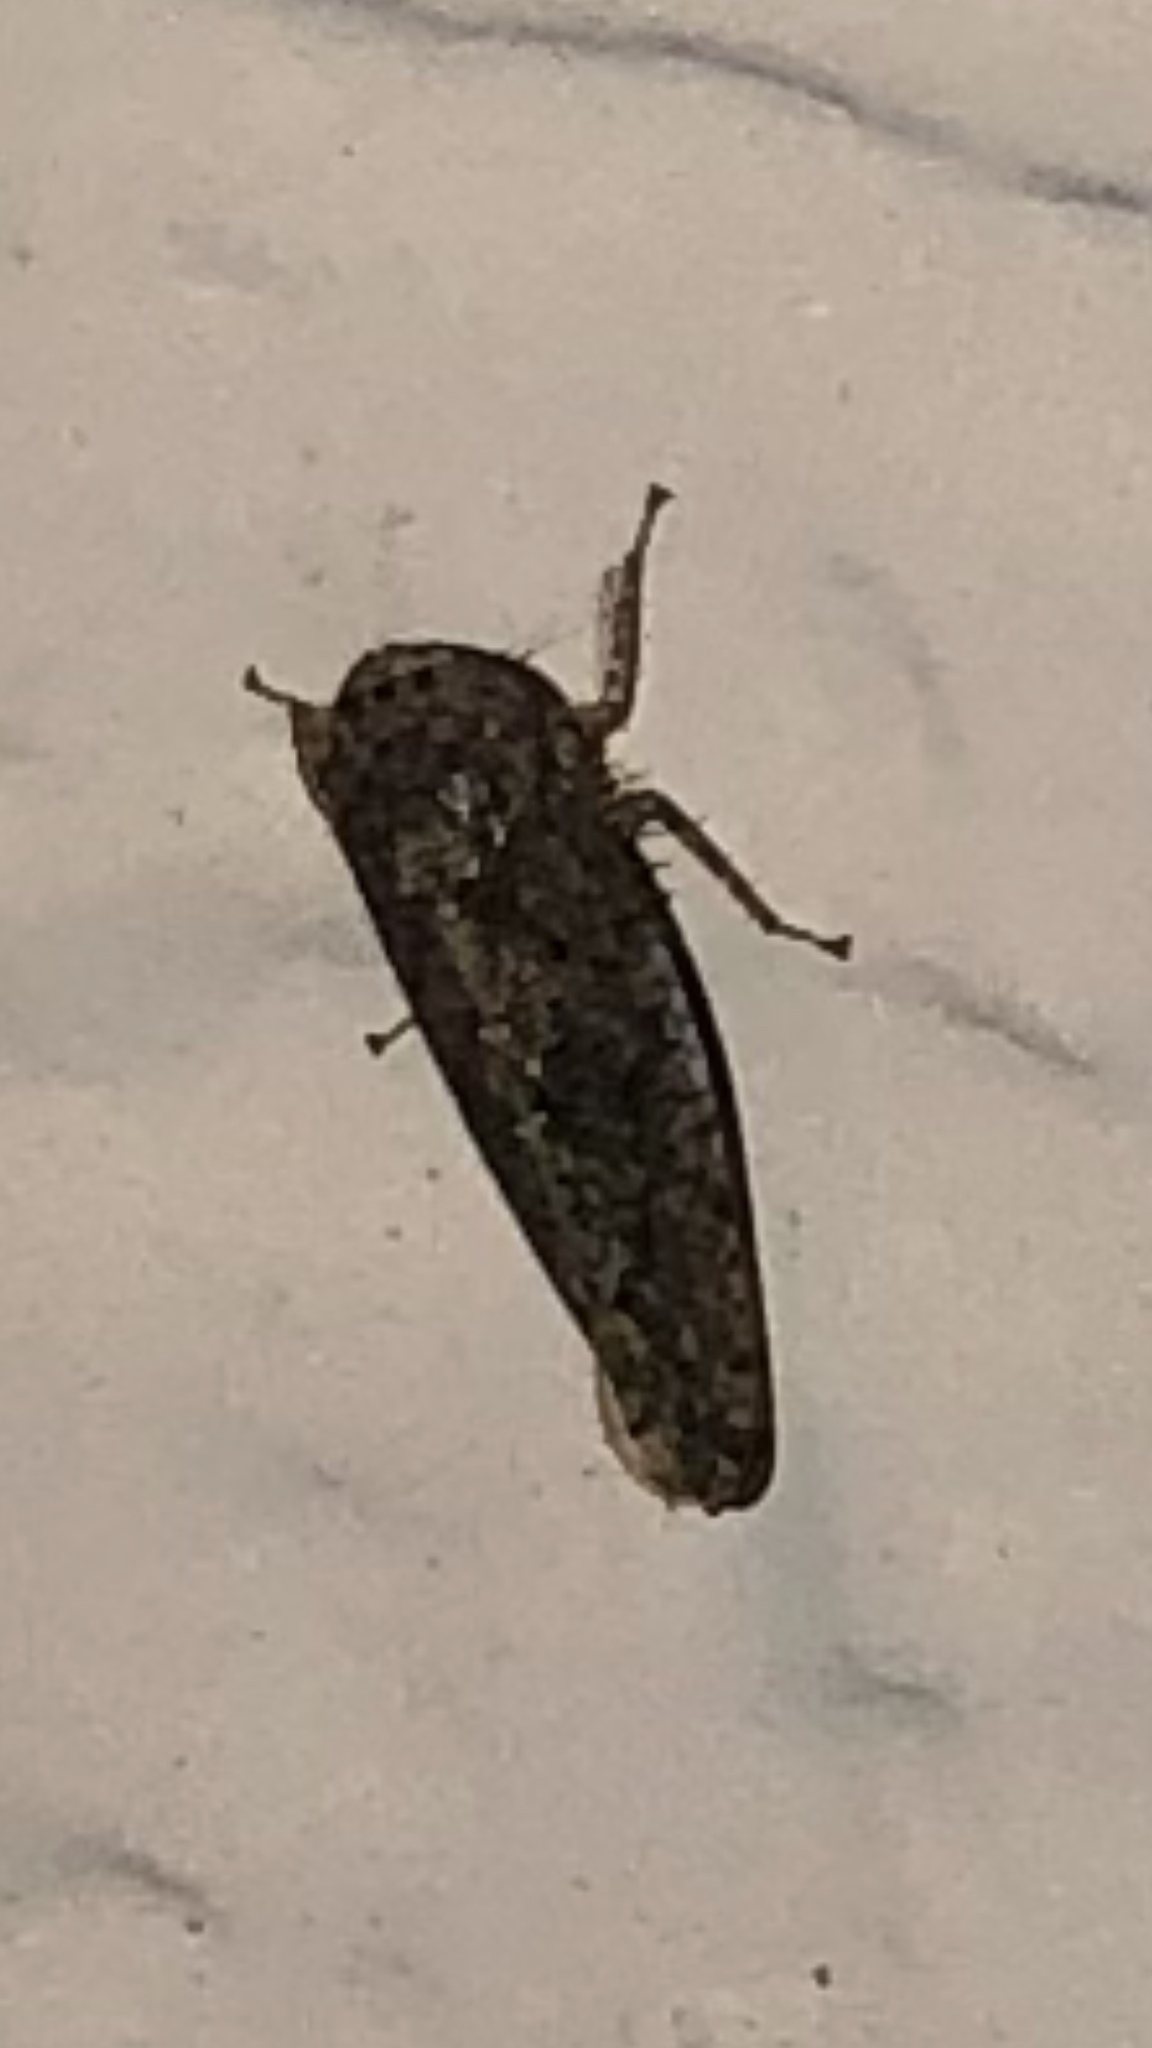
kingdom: Animalia
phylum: Arthropoda
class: Insecta
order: Hemiptera
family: Cicadellidae
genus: Paraphlepsius
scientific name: Paraphlepsius
